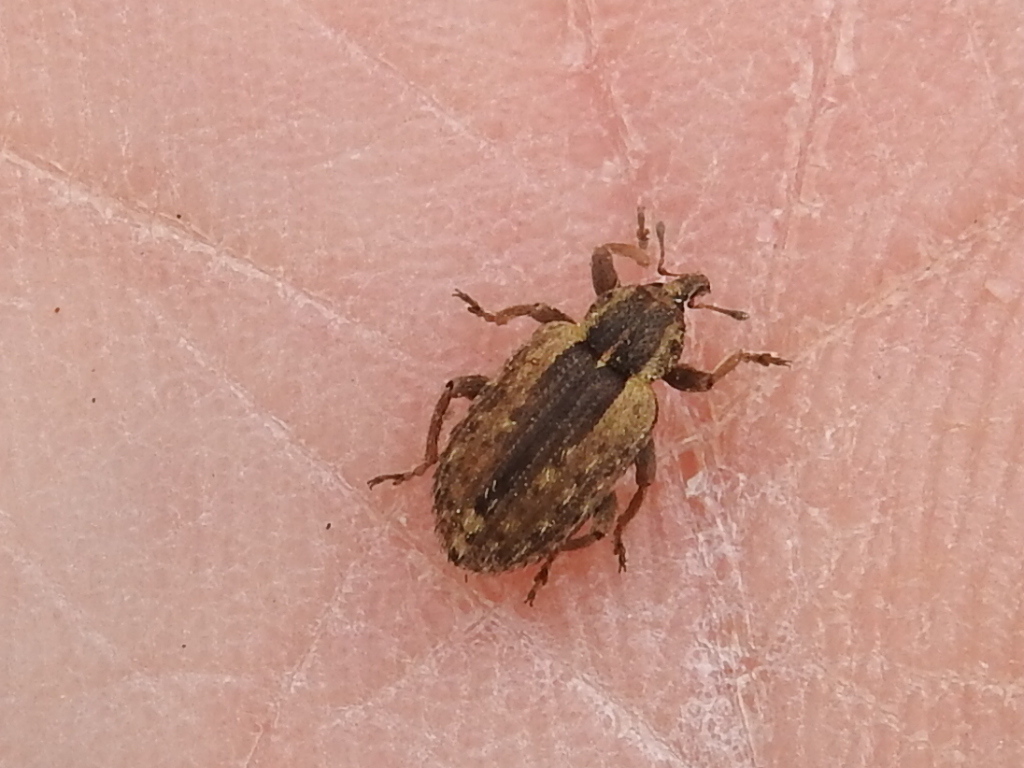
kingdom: Animalia
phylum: Arthropoda
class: Insecta
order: Coleoptera
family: Curculionidae
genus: Hypera
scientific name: Hypera postica
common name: Weevil
